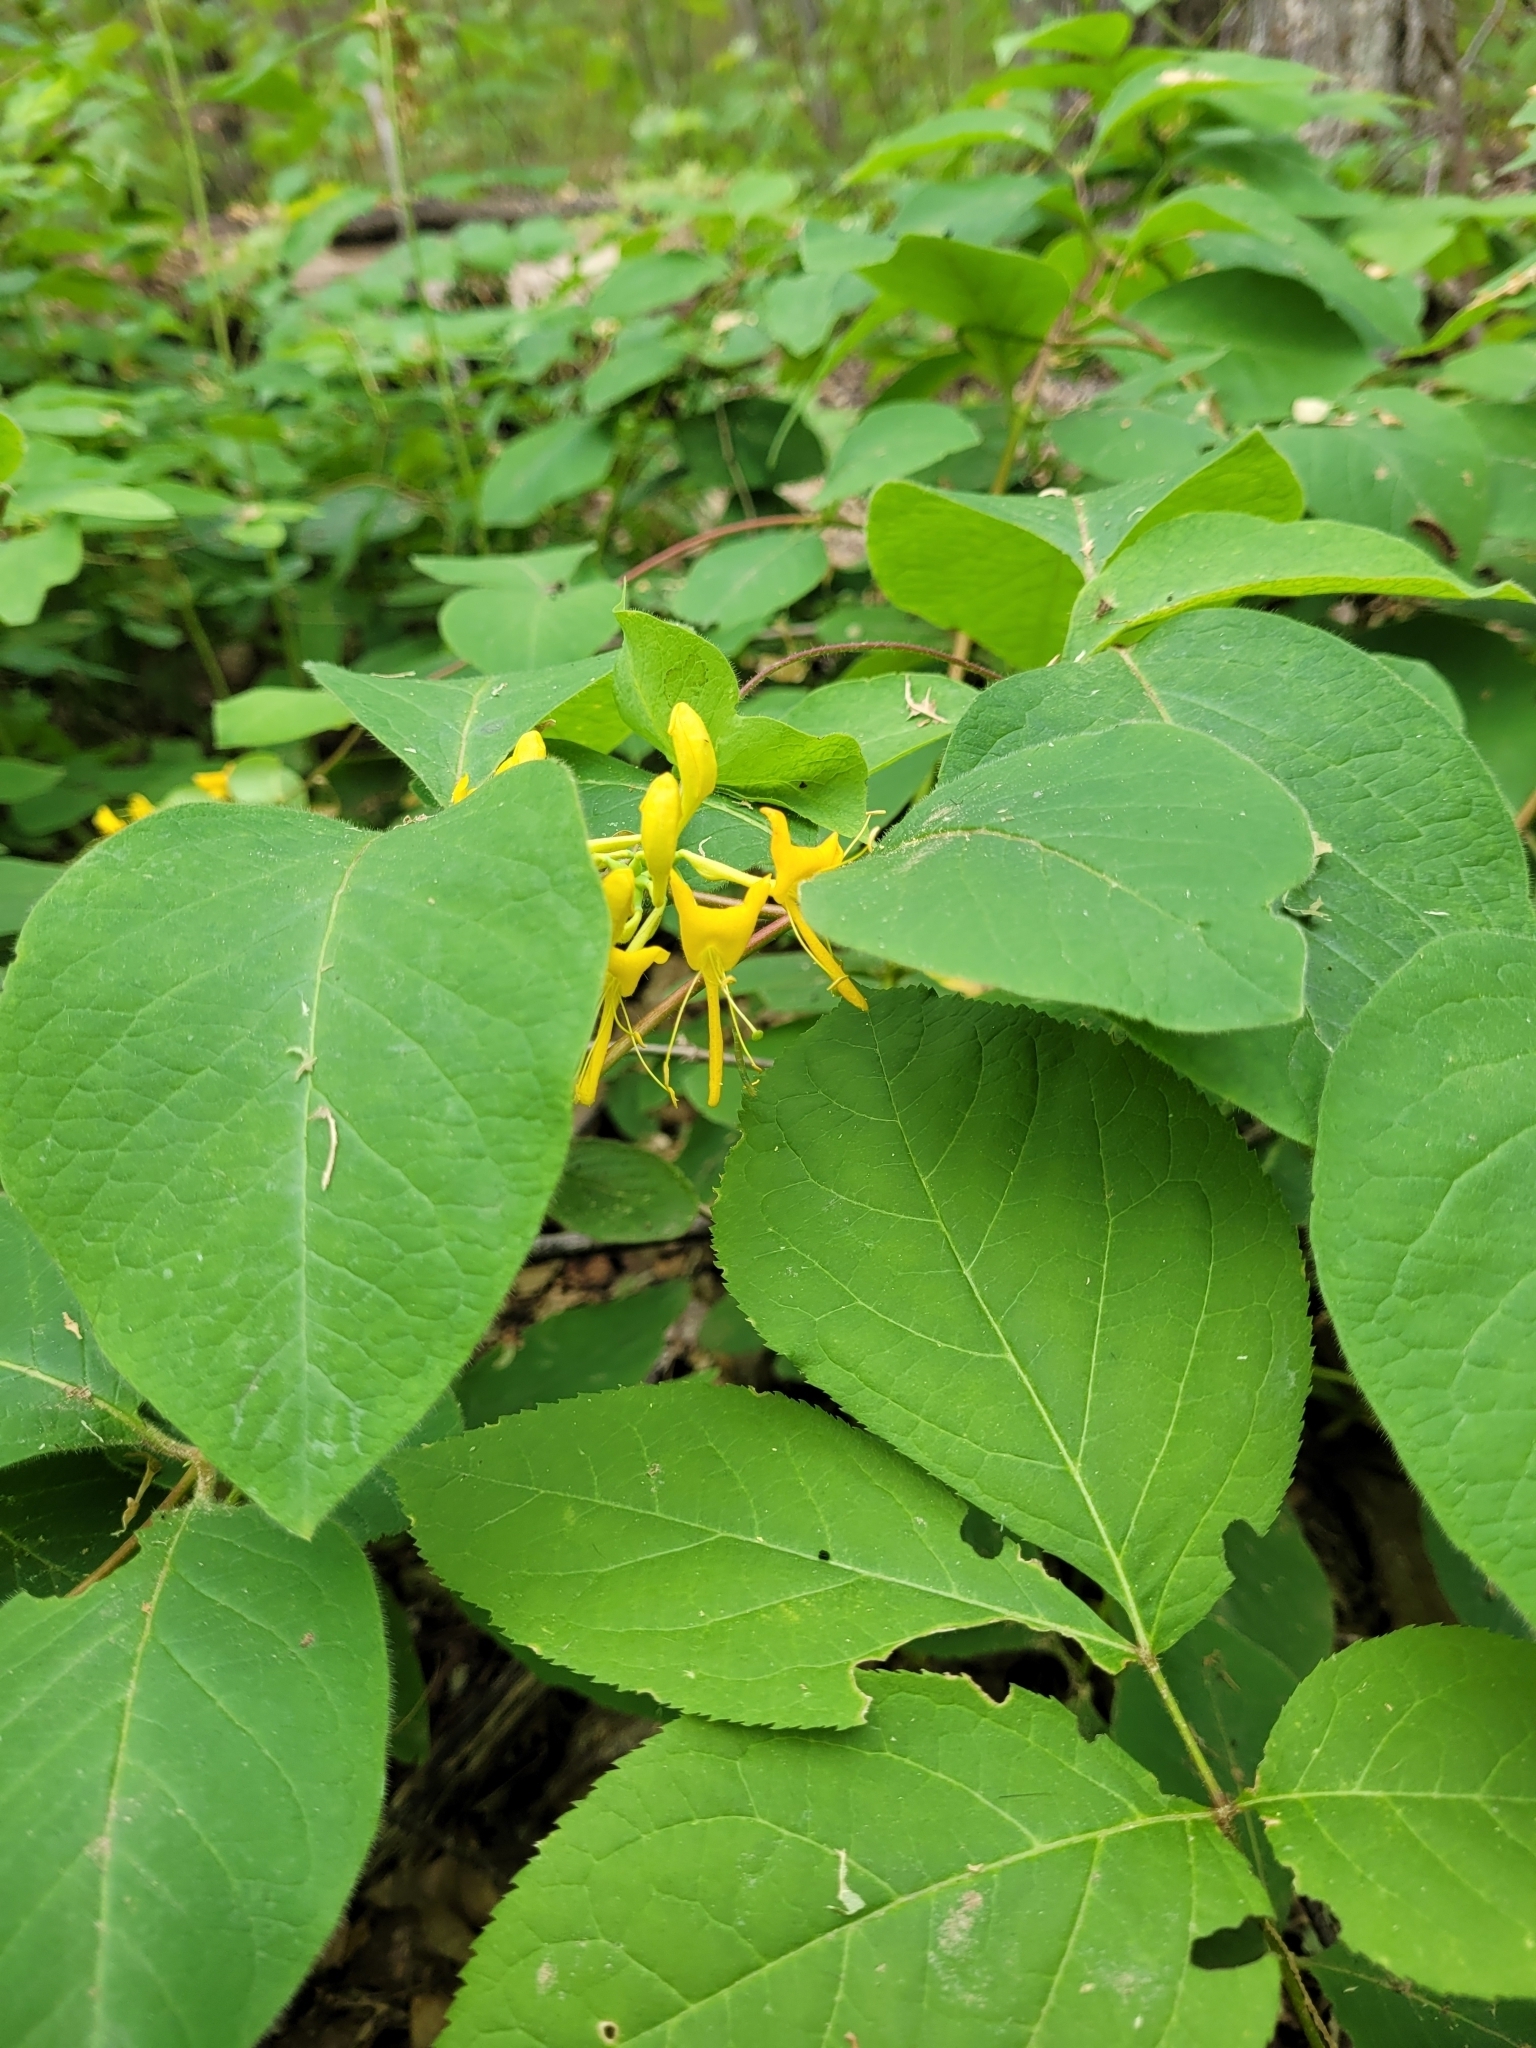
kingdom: Plantae
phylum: Tracheophyta
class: Magnoliopsida
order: Dipsacales
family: Caprifoliaceae
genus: Diervilla
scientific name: Diervilla lonicera
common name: Bush-honeysuckle
